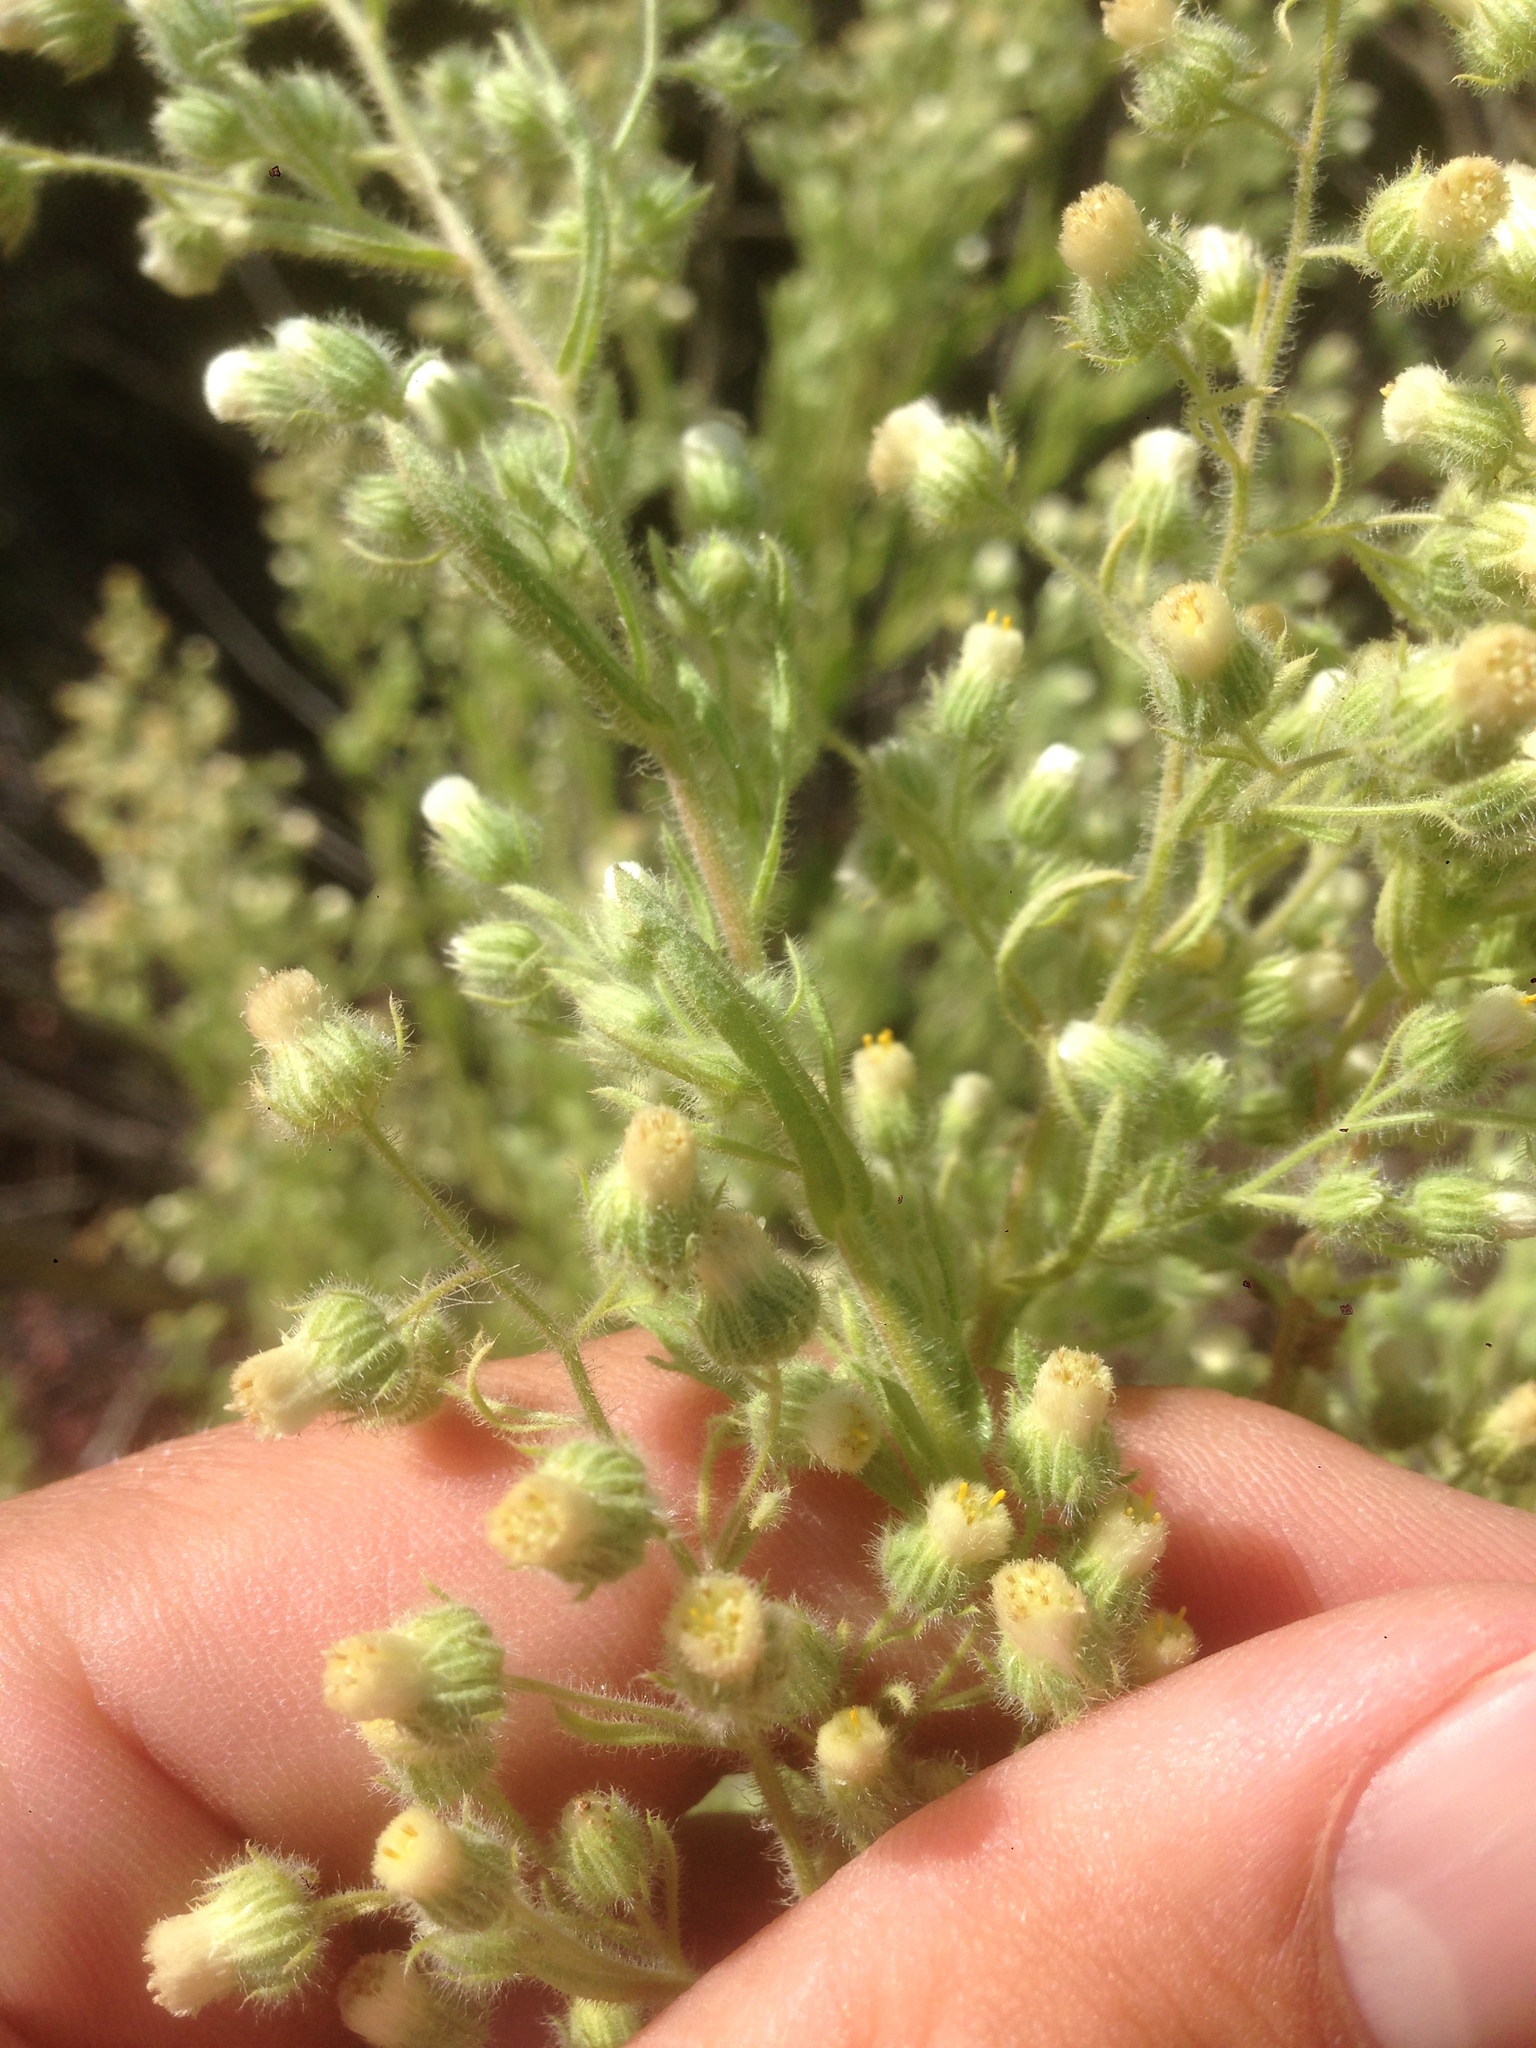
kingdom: Plantae
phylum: Tracheophyta
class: Magnoliopsida
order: Asterales
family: Asteraceae
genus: Laennecia
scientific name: Laennecia coulteri
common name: Coulter's woolwort
